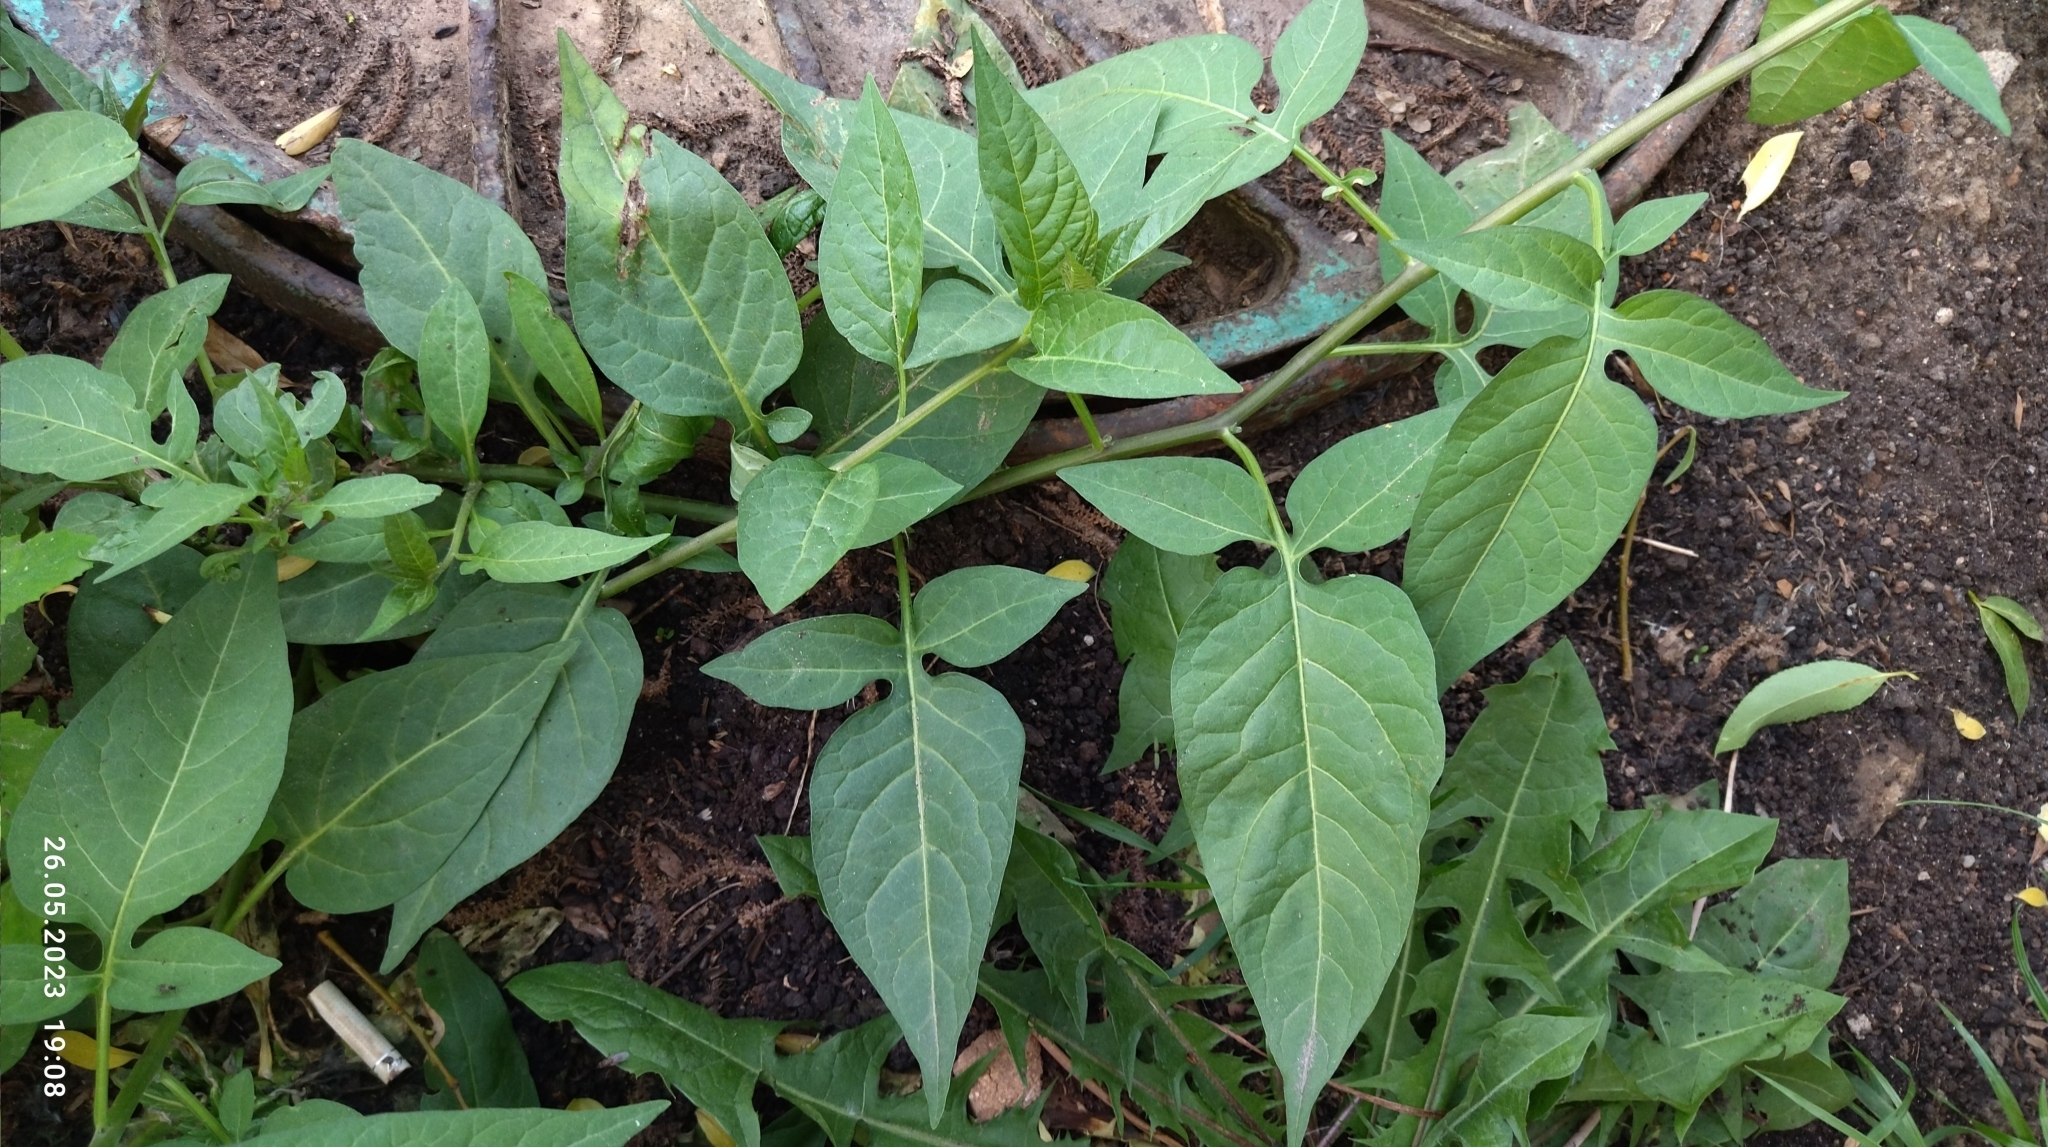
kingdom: Plantae
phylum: Tracheophyta
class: Magnoliopsida
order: Solanales
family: Solanaceae
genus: Solanum
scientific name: Solanum dulcamara
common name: Climbing nightshade
